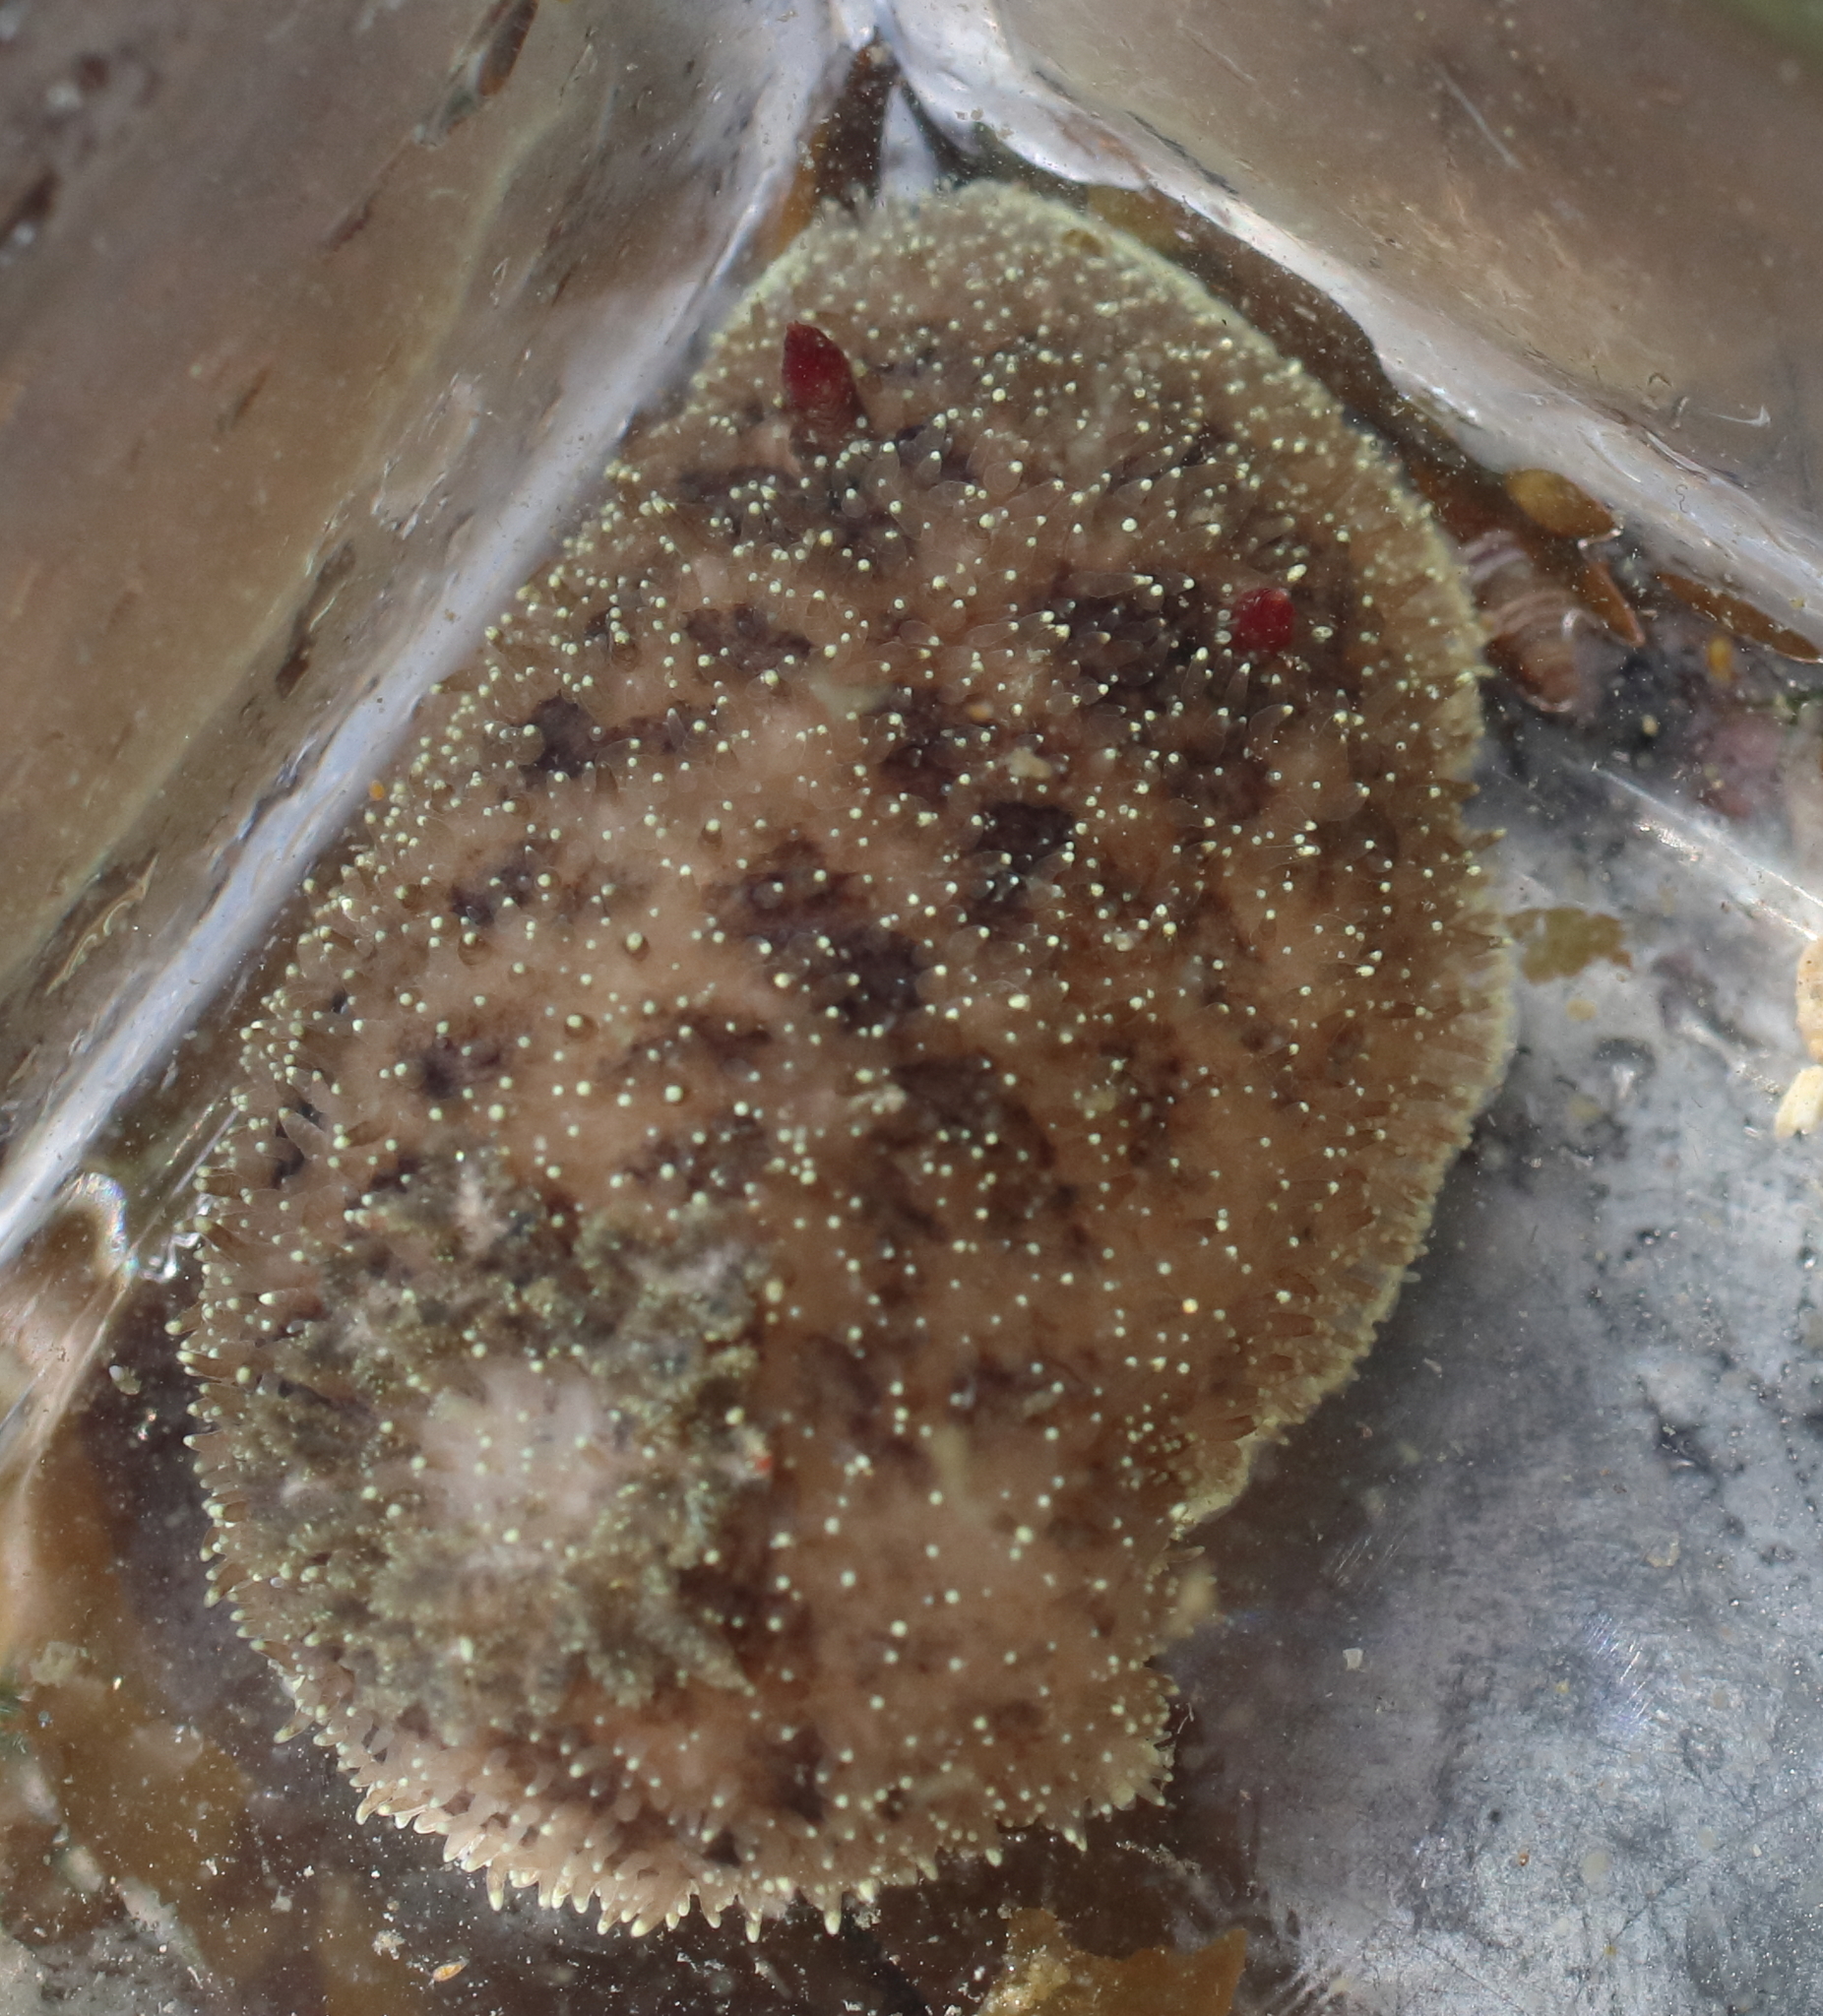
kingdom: Animalia
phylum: Mollusca
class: Gastropoda
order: Nudibranchia
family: Onchidorididae
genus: Acanthodoris
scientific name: Acanthodoris nanaimoensis
